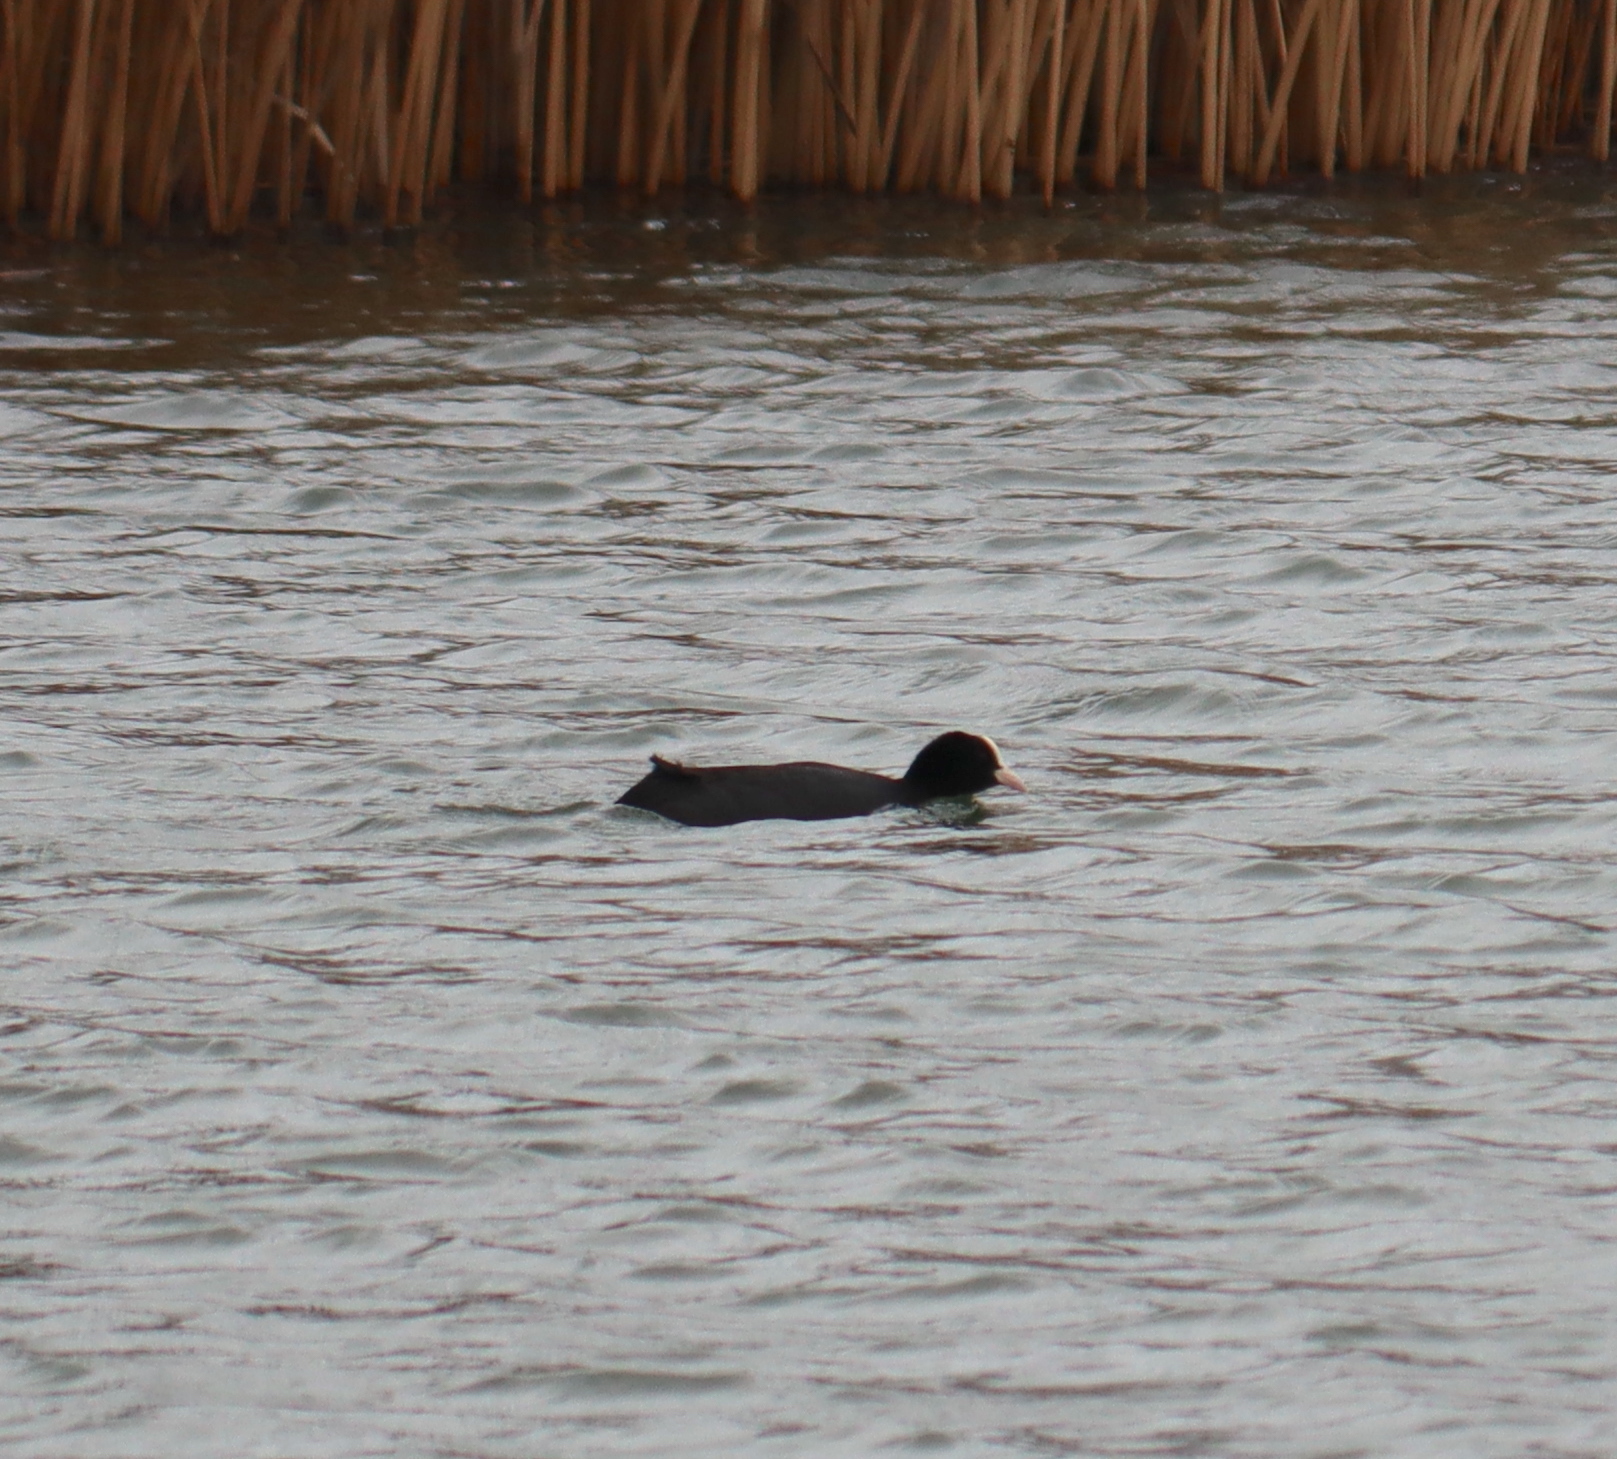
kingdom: Animalia
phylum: Chordata
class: Aves
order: Gruiformes
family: Rallidae
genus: Fulica
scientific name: Fulica atra
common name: Eurasian coot
